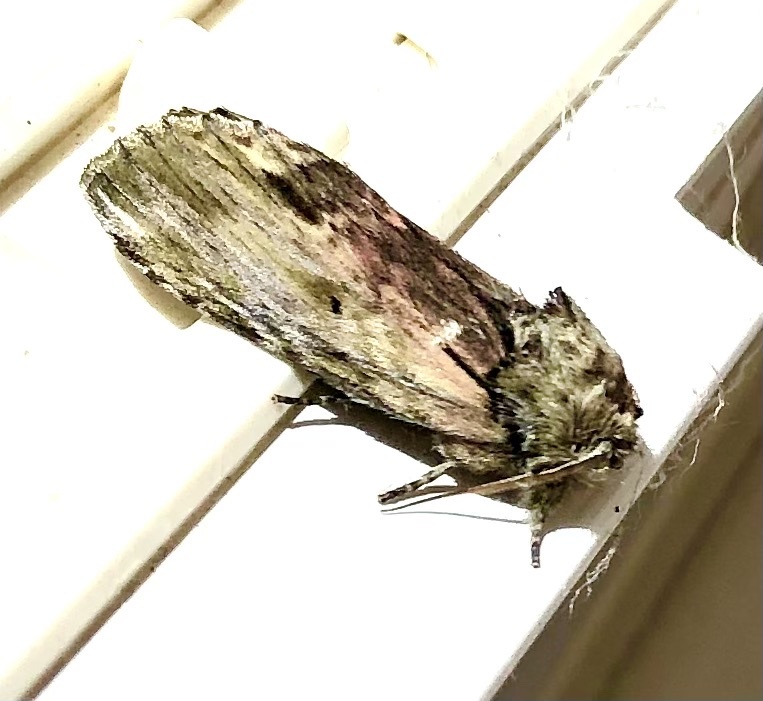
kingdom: Animalia
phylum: Arthropoda
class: Insecta
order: Lepidoptera
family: Notodontidae
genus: Schizura
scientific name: Schizura
